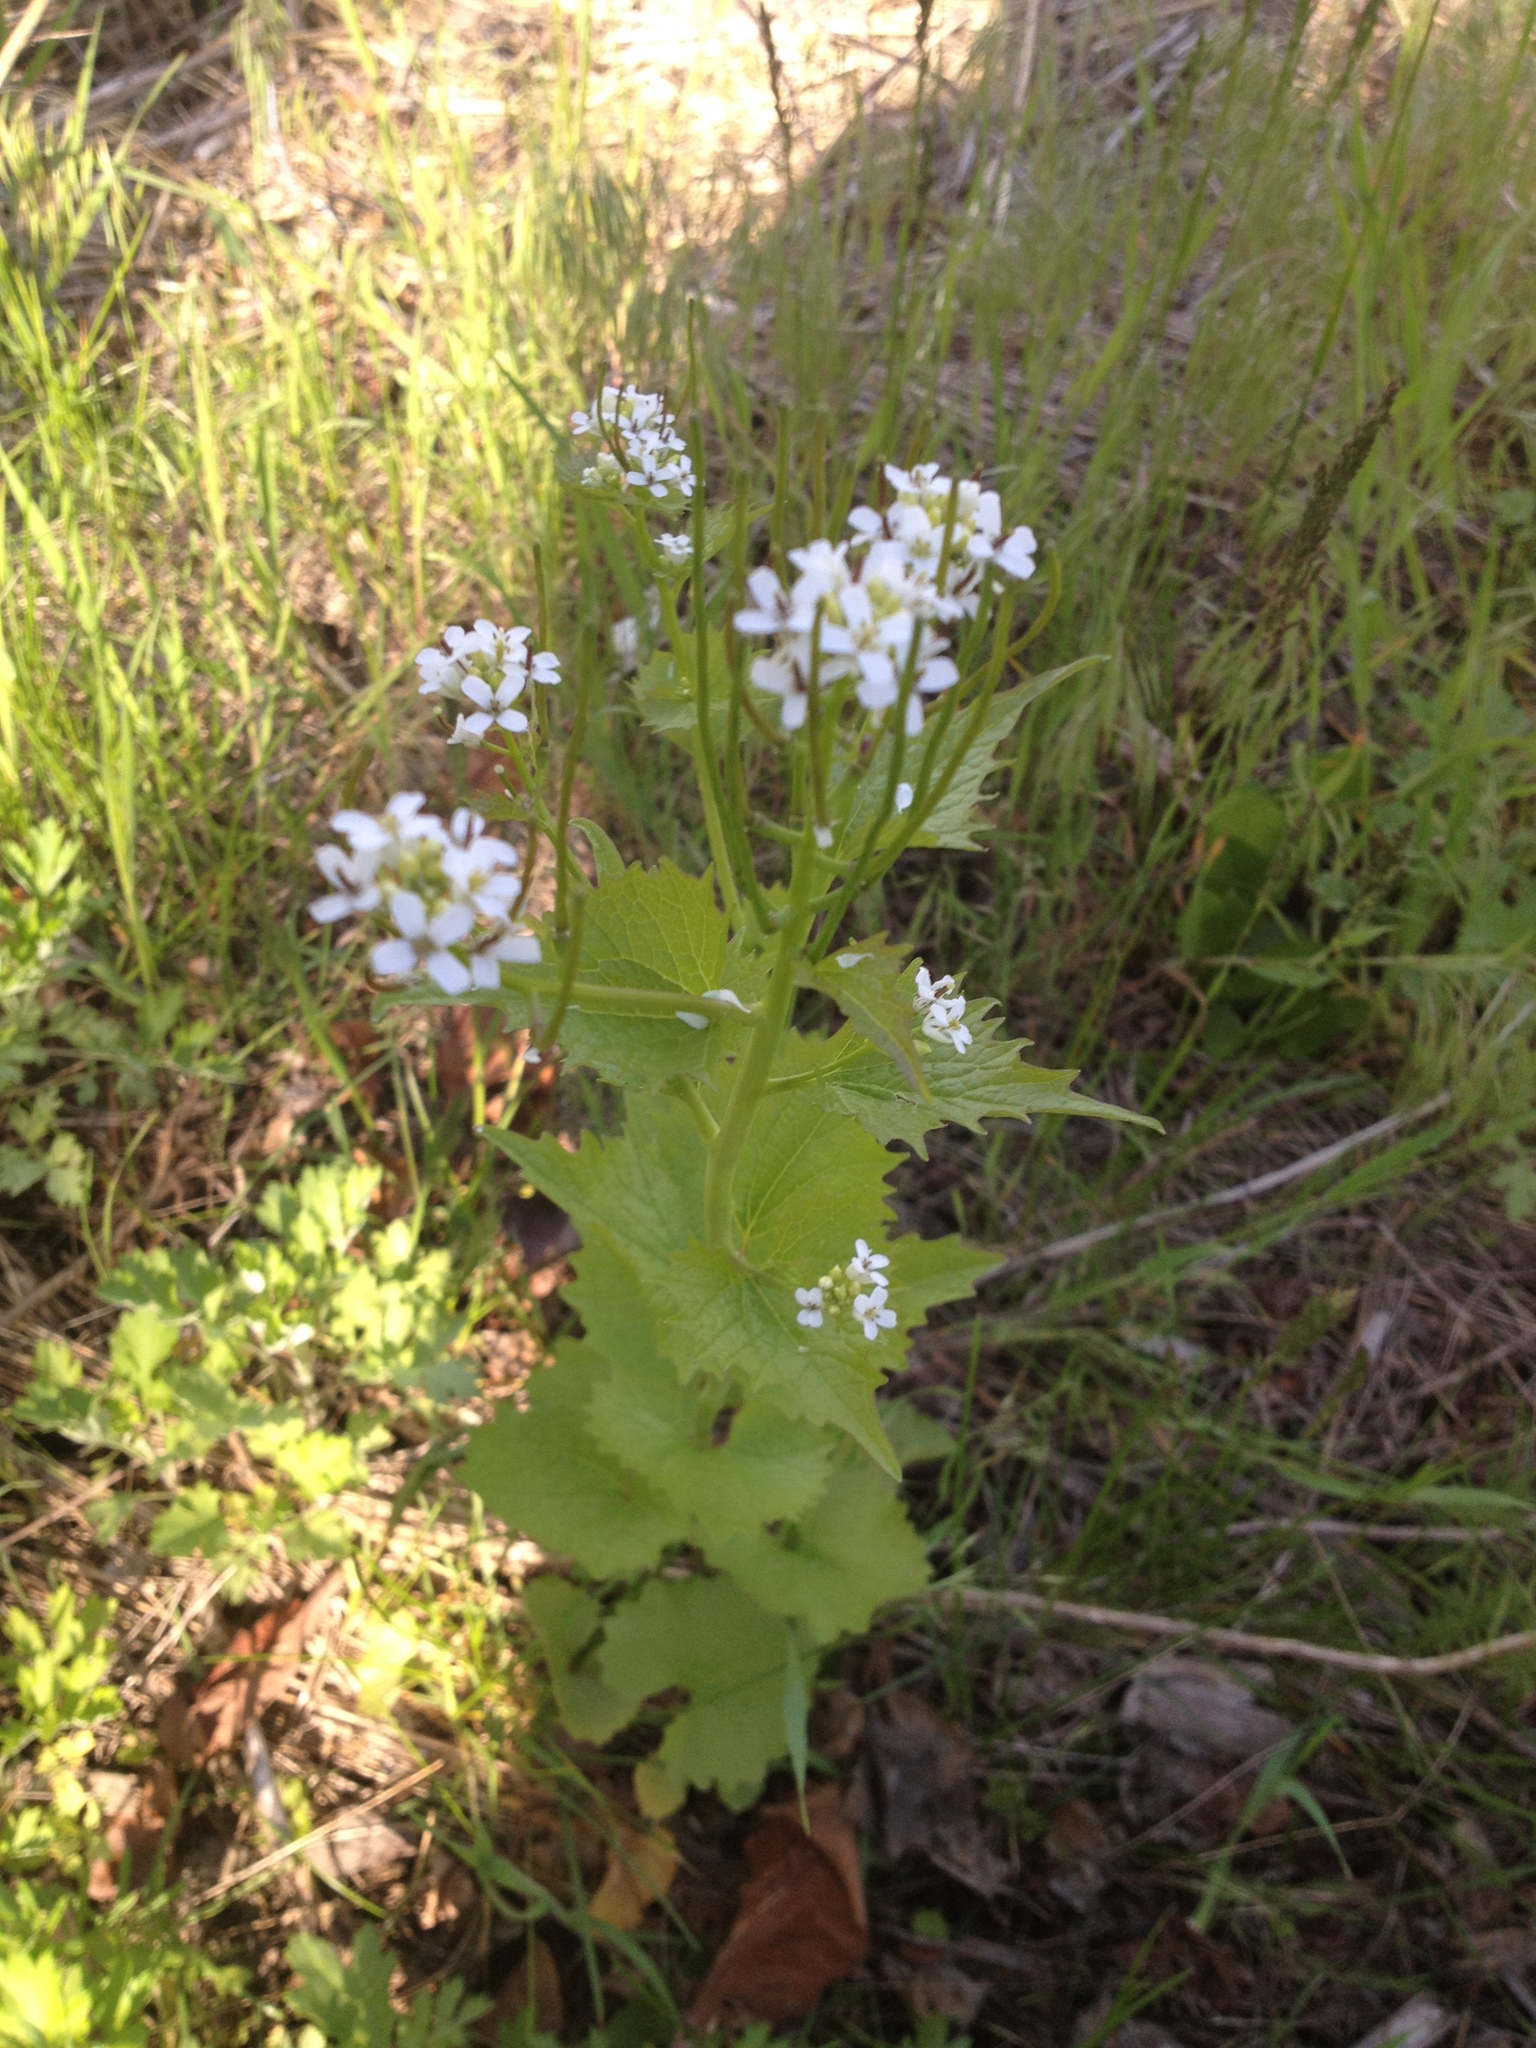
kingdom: Plantae
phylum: Tracheophyta
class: Magnoliopsida
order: Brassicales
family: Brassicaceae
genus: Alliaria
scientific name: Alliaria petiolata
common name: Garlic mustard
